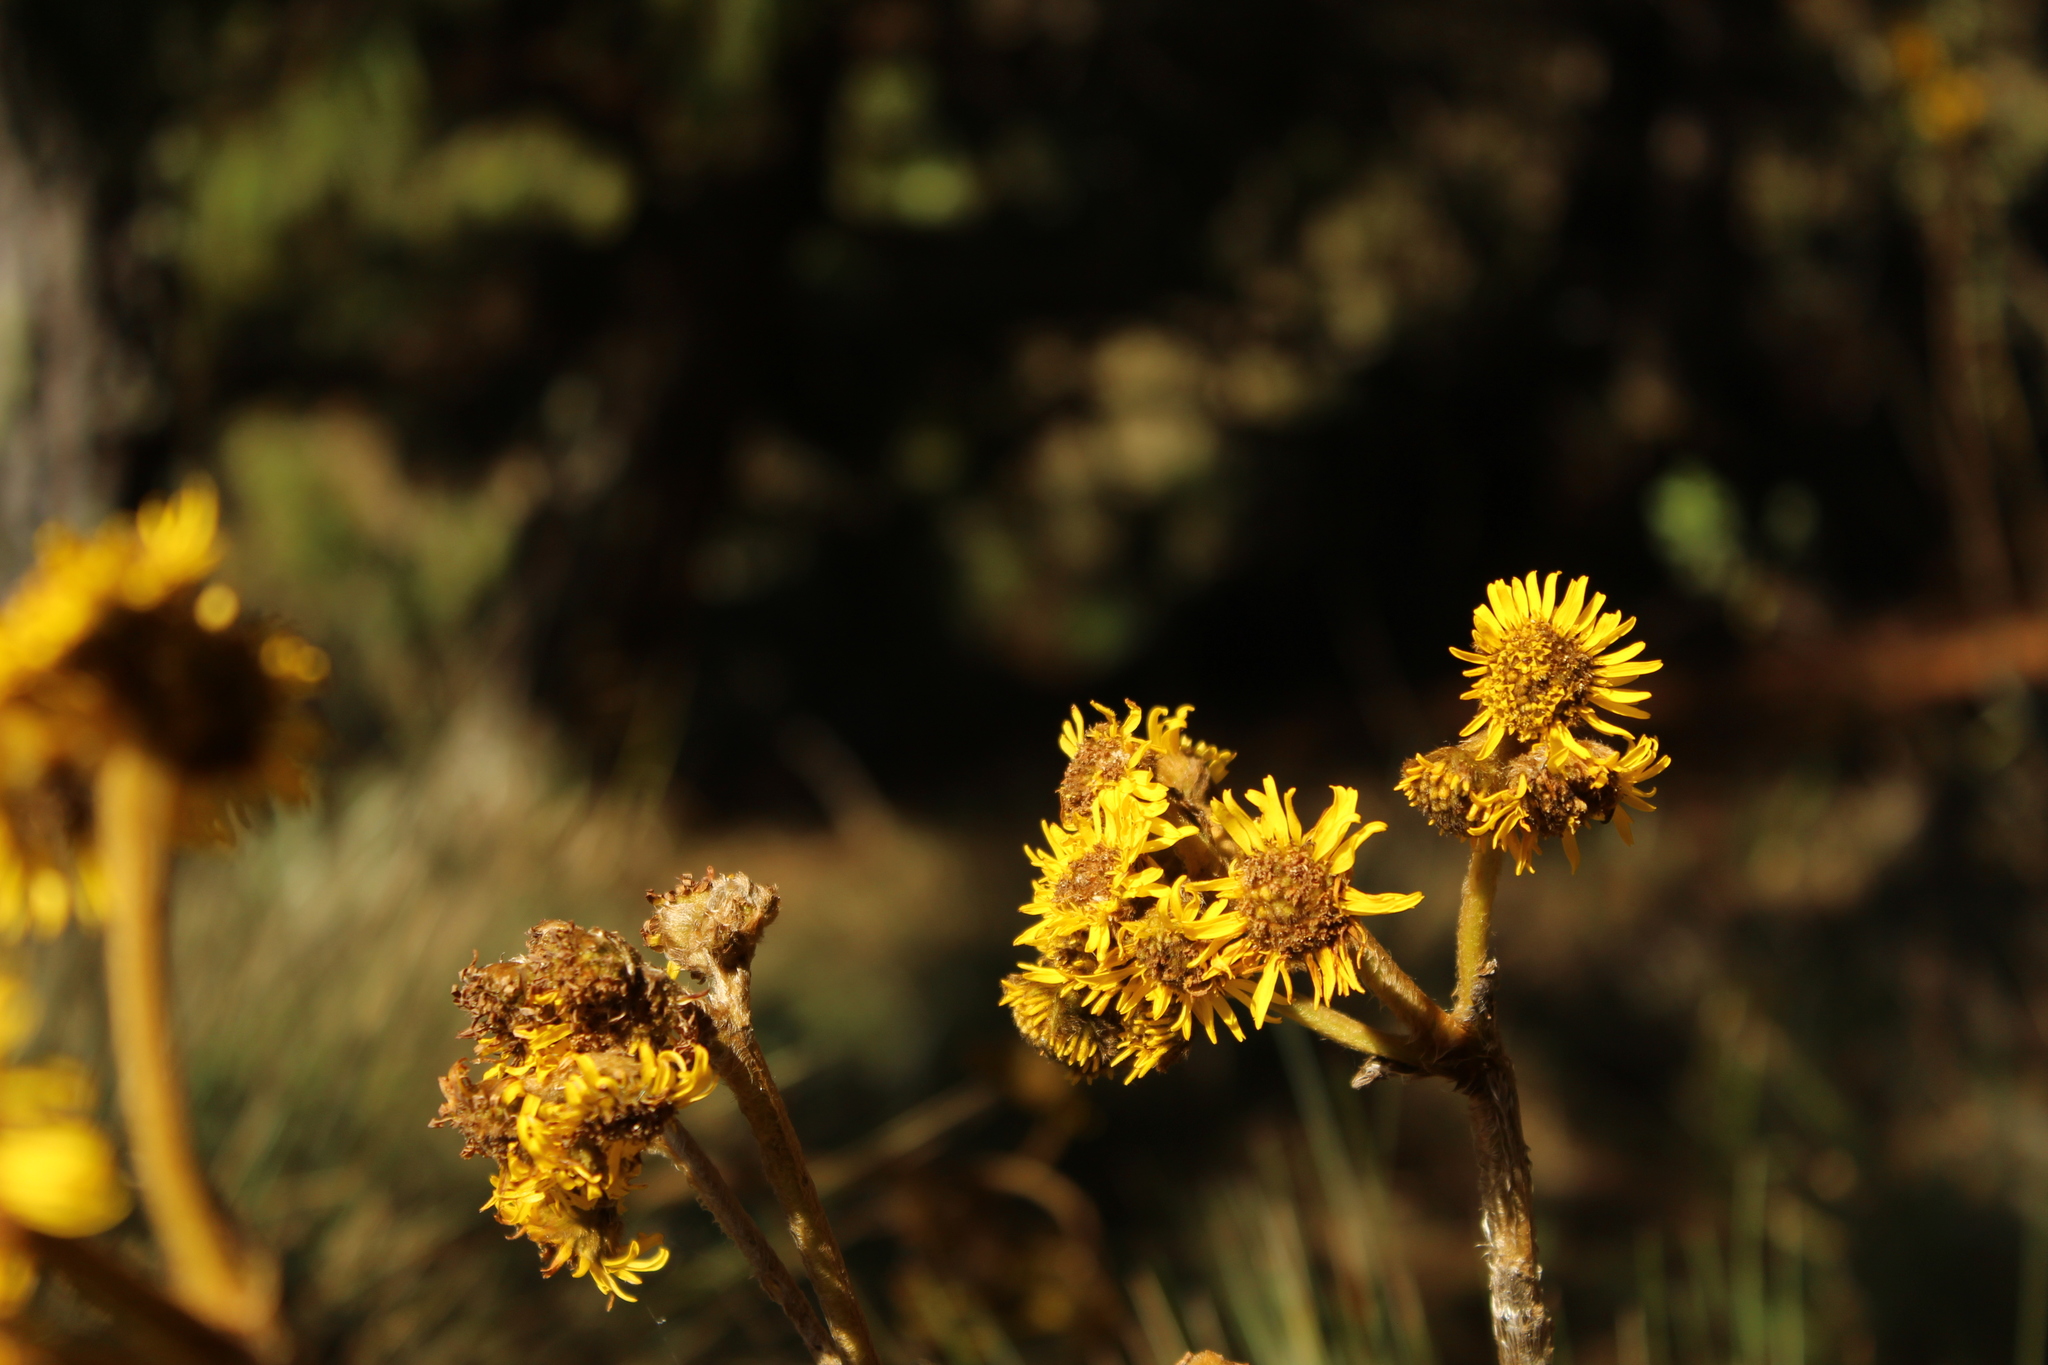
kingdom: Plantae
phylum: Tracheophyta
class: Magnoliopsida
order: Asterales
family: Asteraceae
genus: Espeletia
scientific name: Espeletia boyacensis
